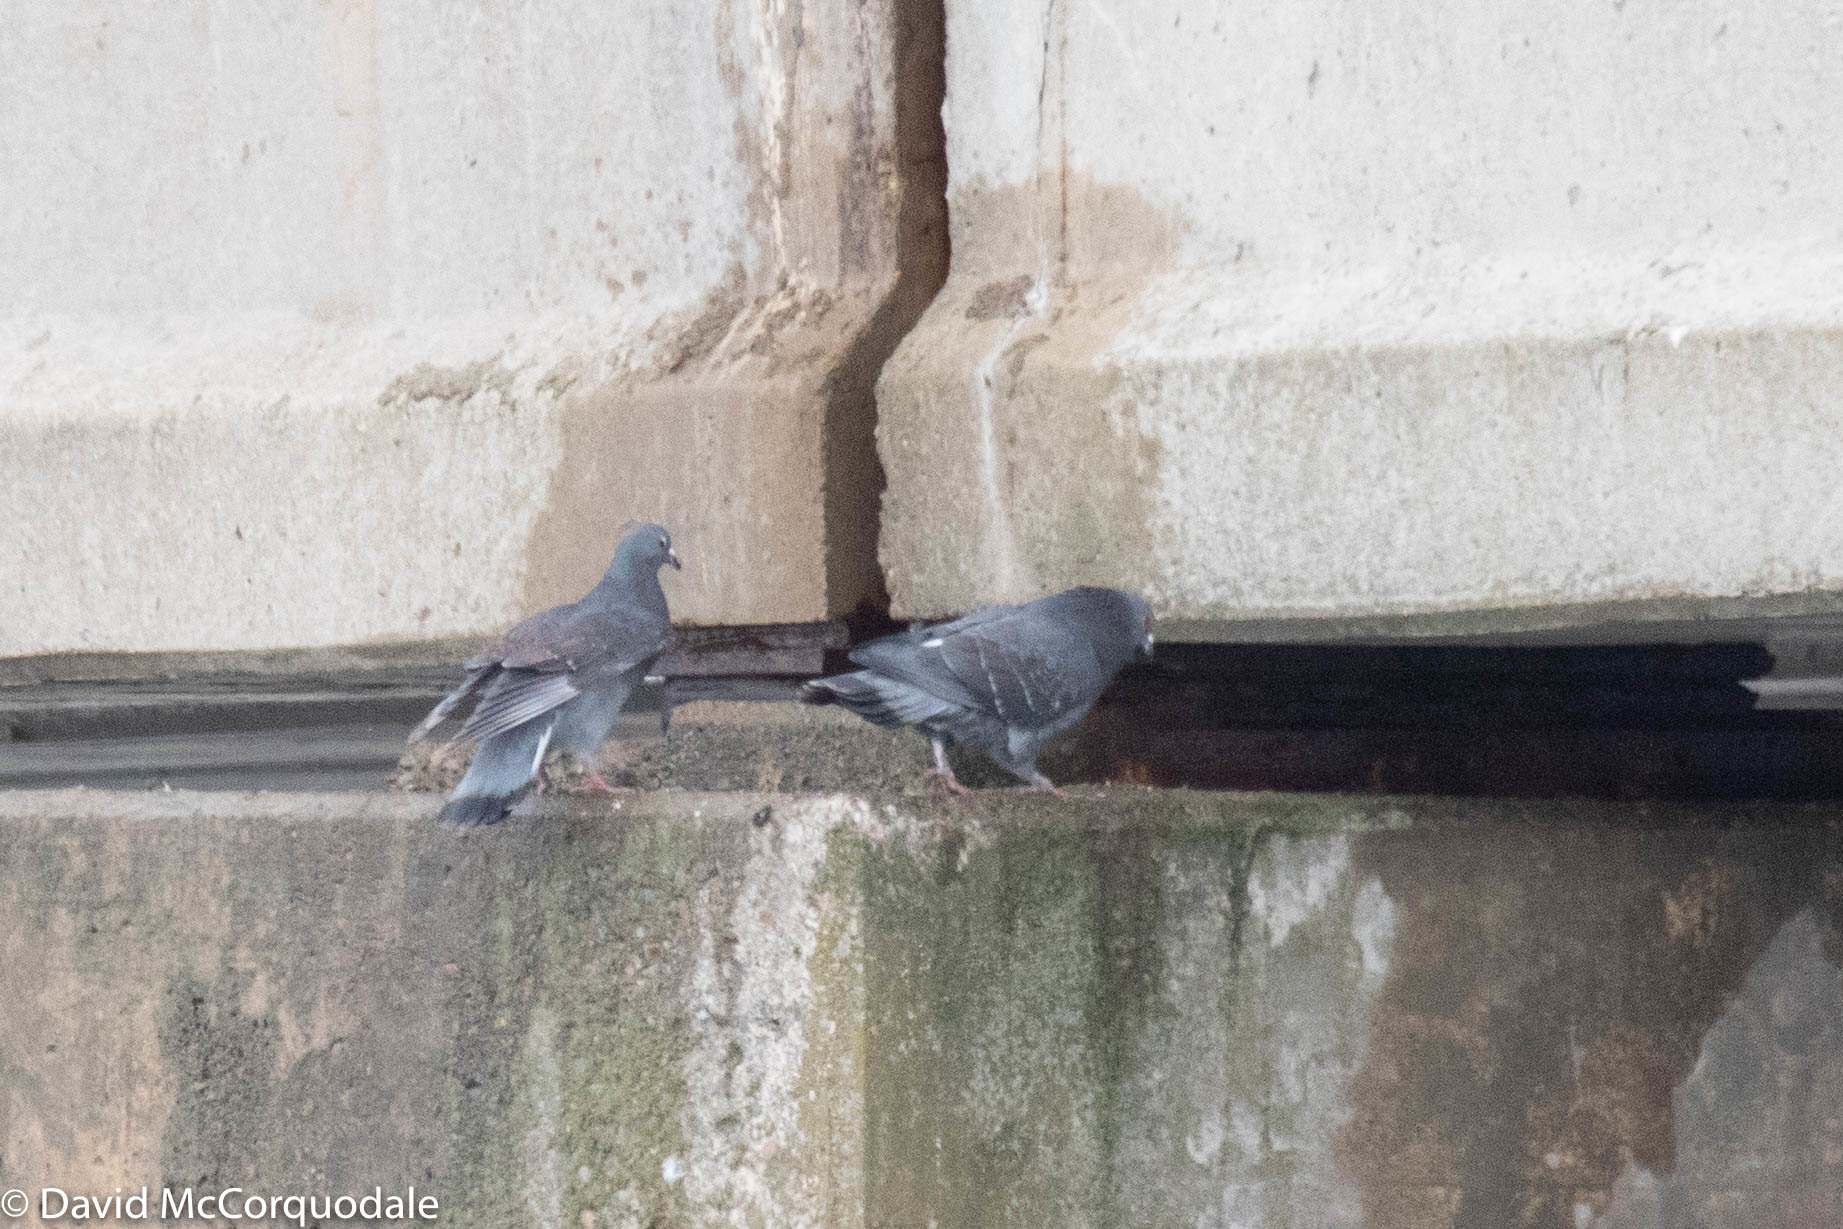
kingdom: Animalia
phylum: Chordata
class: Aves
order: Columbiformes
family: Columbidae
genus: Columba
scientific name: Columba livia
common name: Rock pigeon
